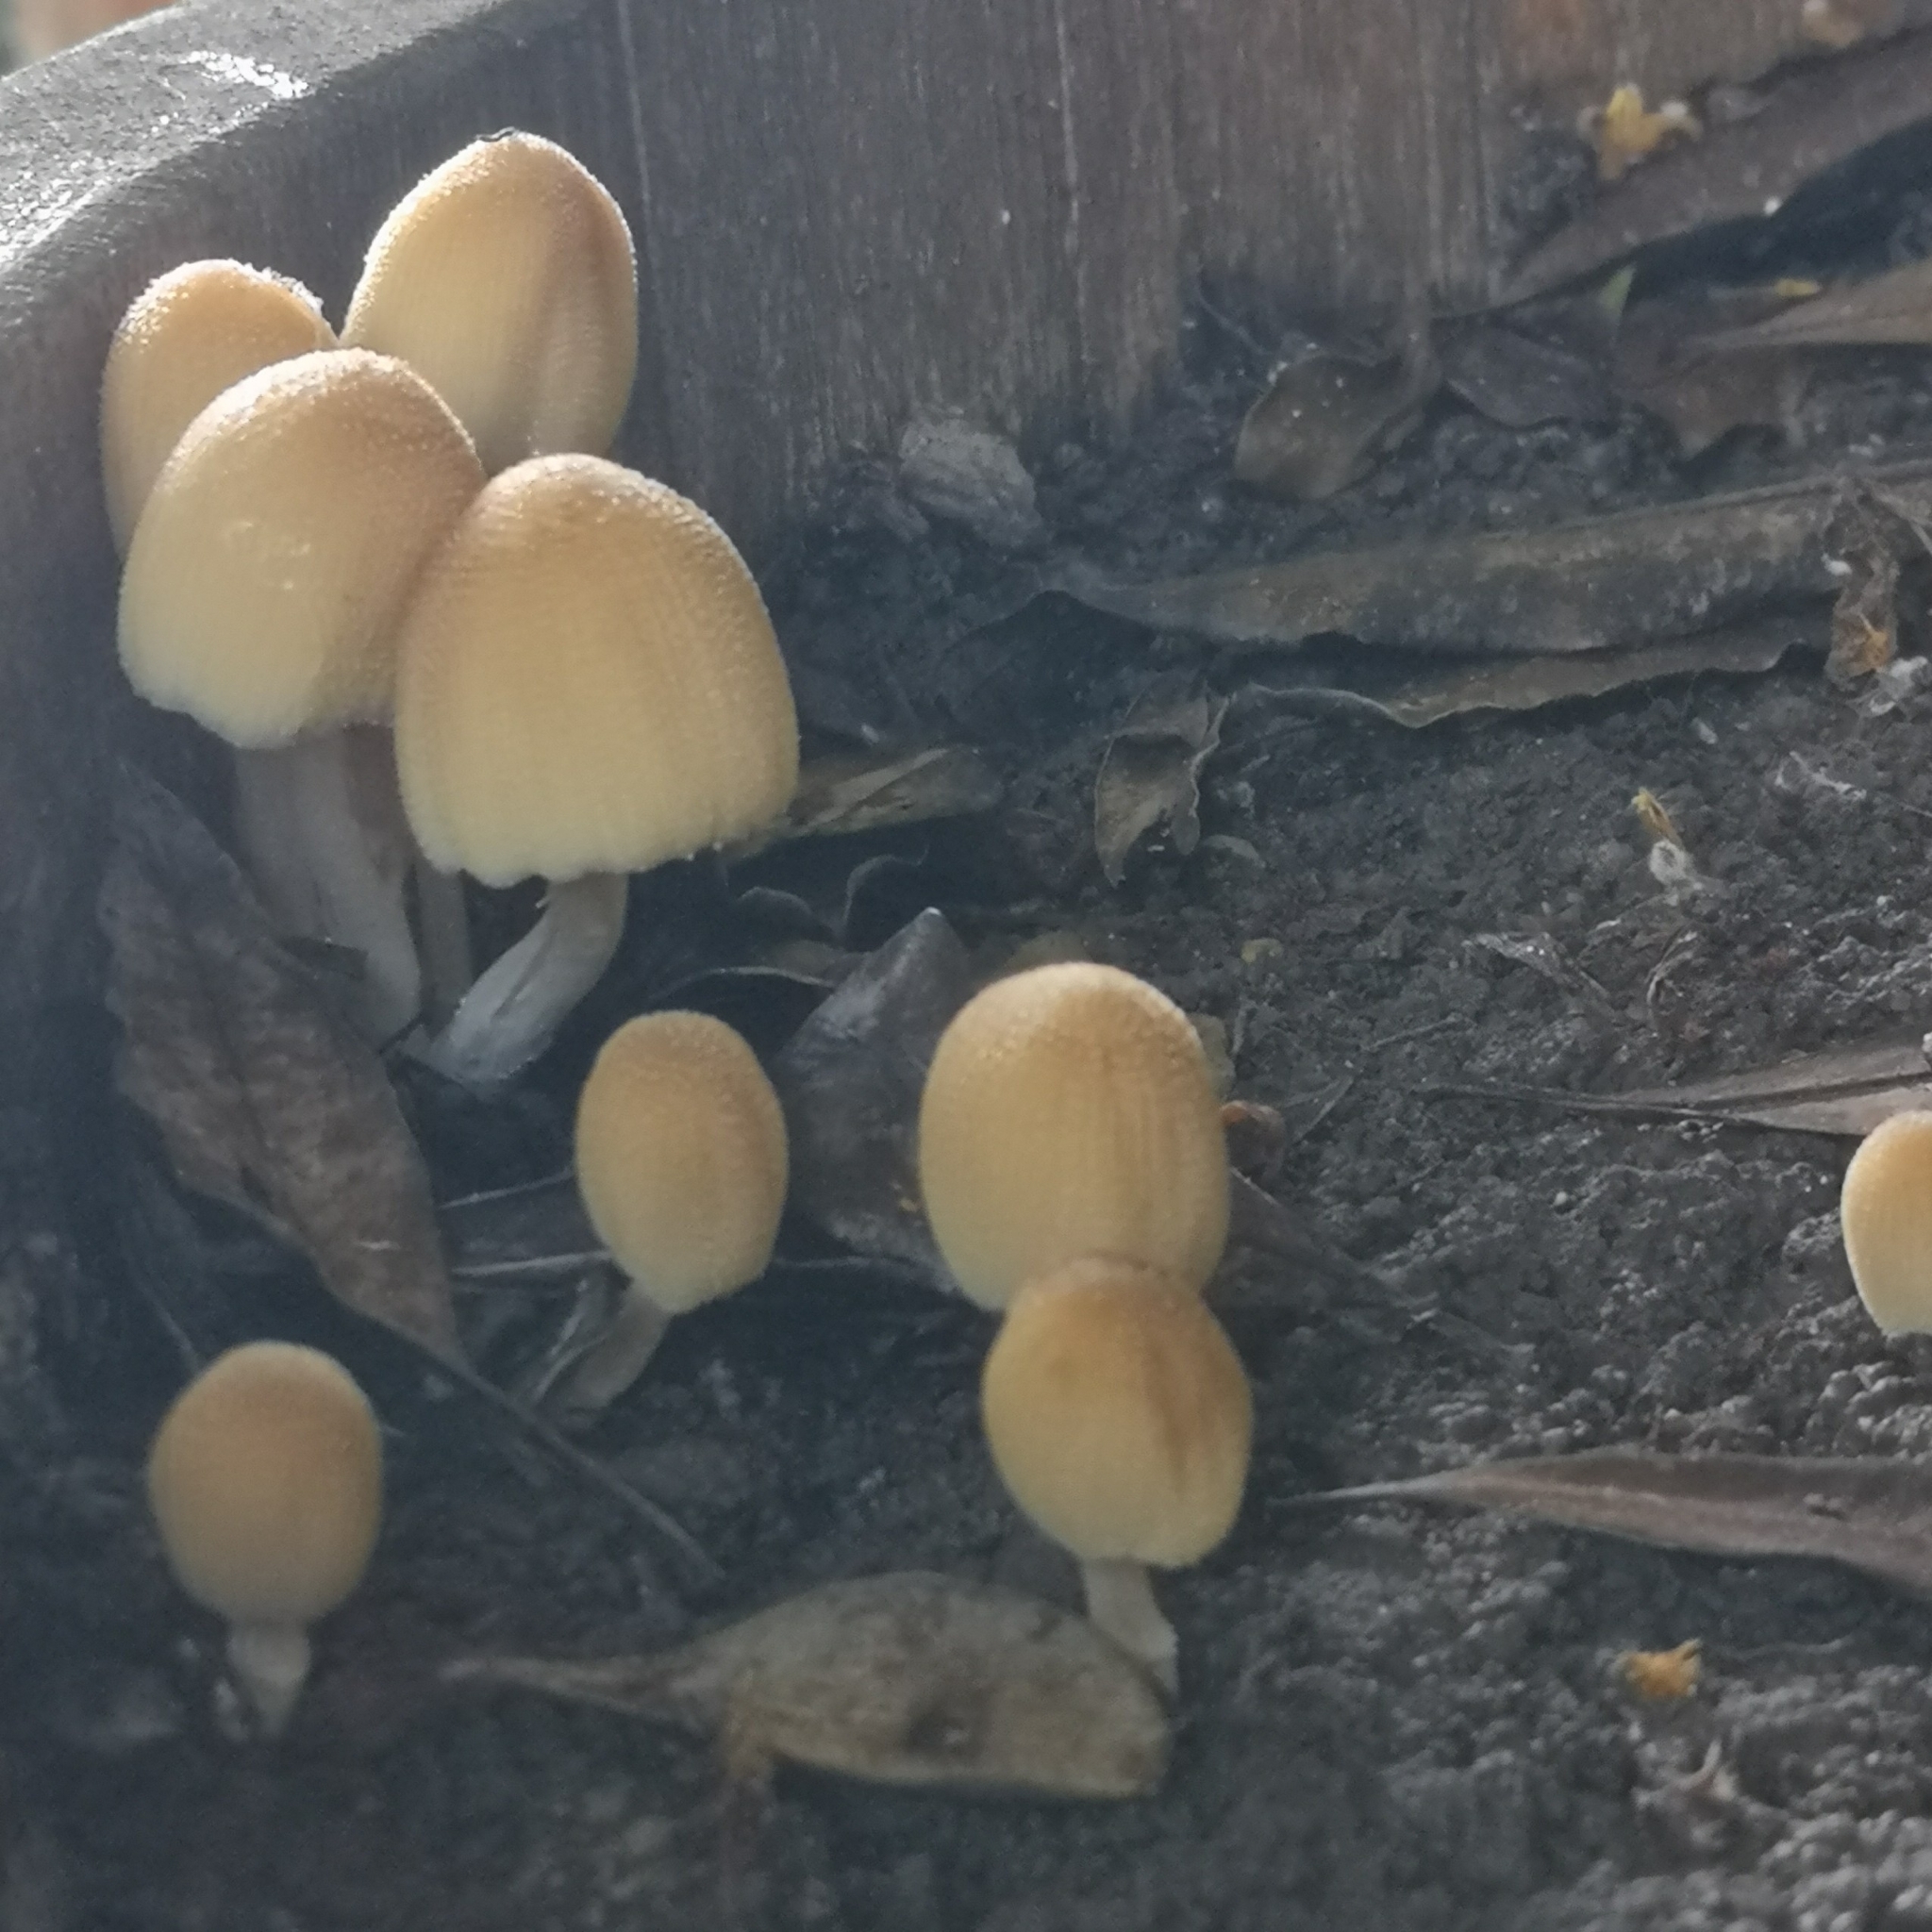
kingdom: Fungi
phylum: Basidiomycota
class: Agaricomycetes
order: Agaricales
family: Psathyrellaceae
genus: Coprinellus
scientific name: Coprinellus micaceus
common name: Glistening ink-cap
